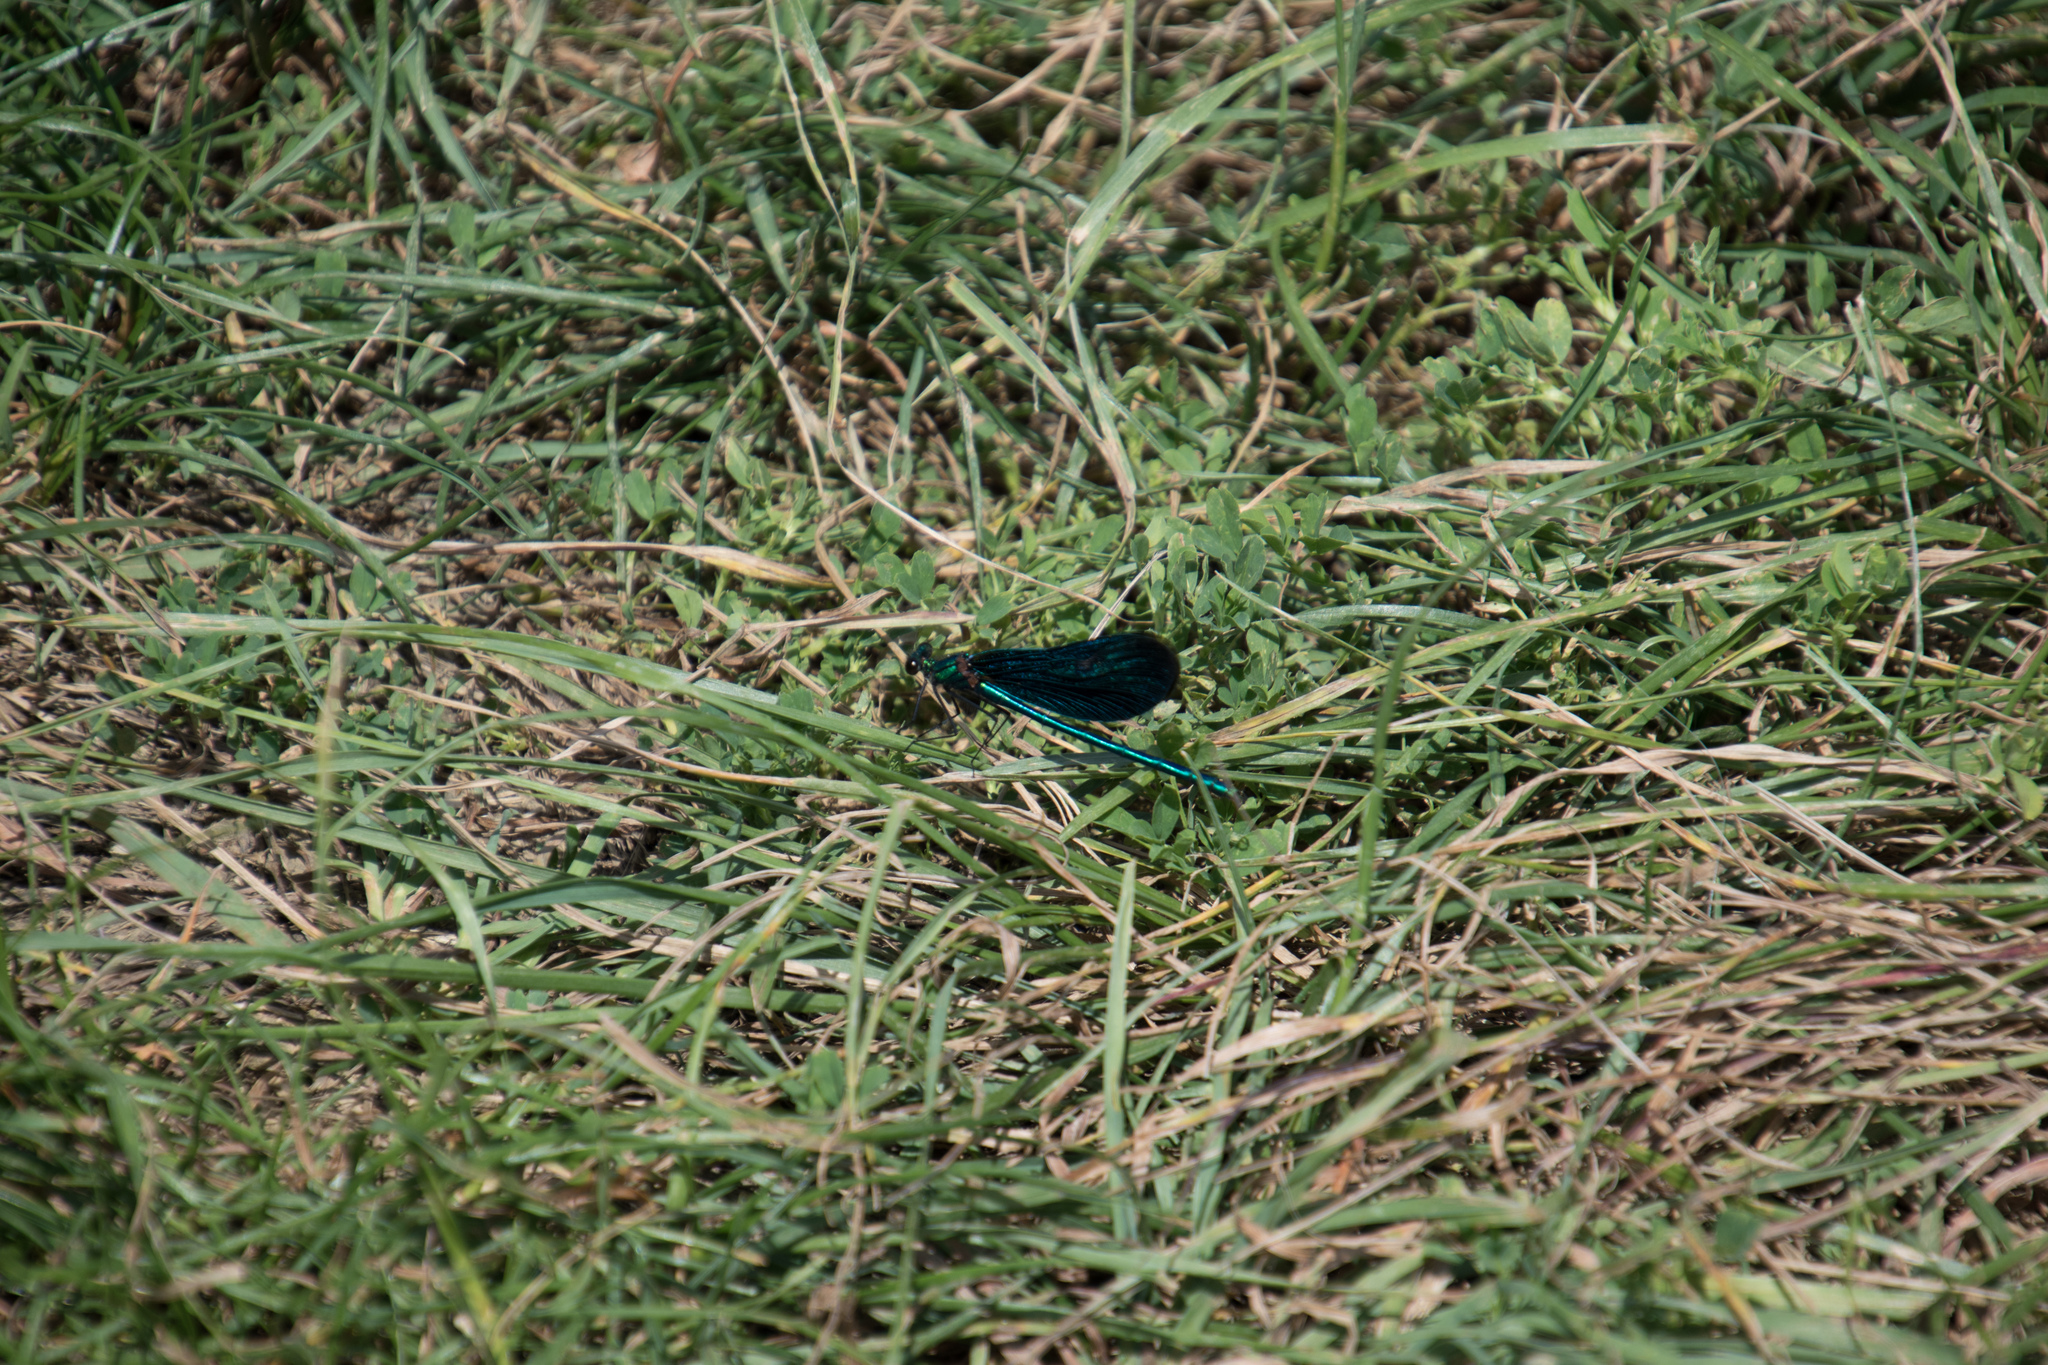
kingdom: Animalia
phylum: Arthropoda
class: Insecta
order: Odonata
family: Calopterygidae
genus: Calopteryx
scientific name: Calopteryx virgo
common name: Beautiful demoiselle
